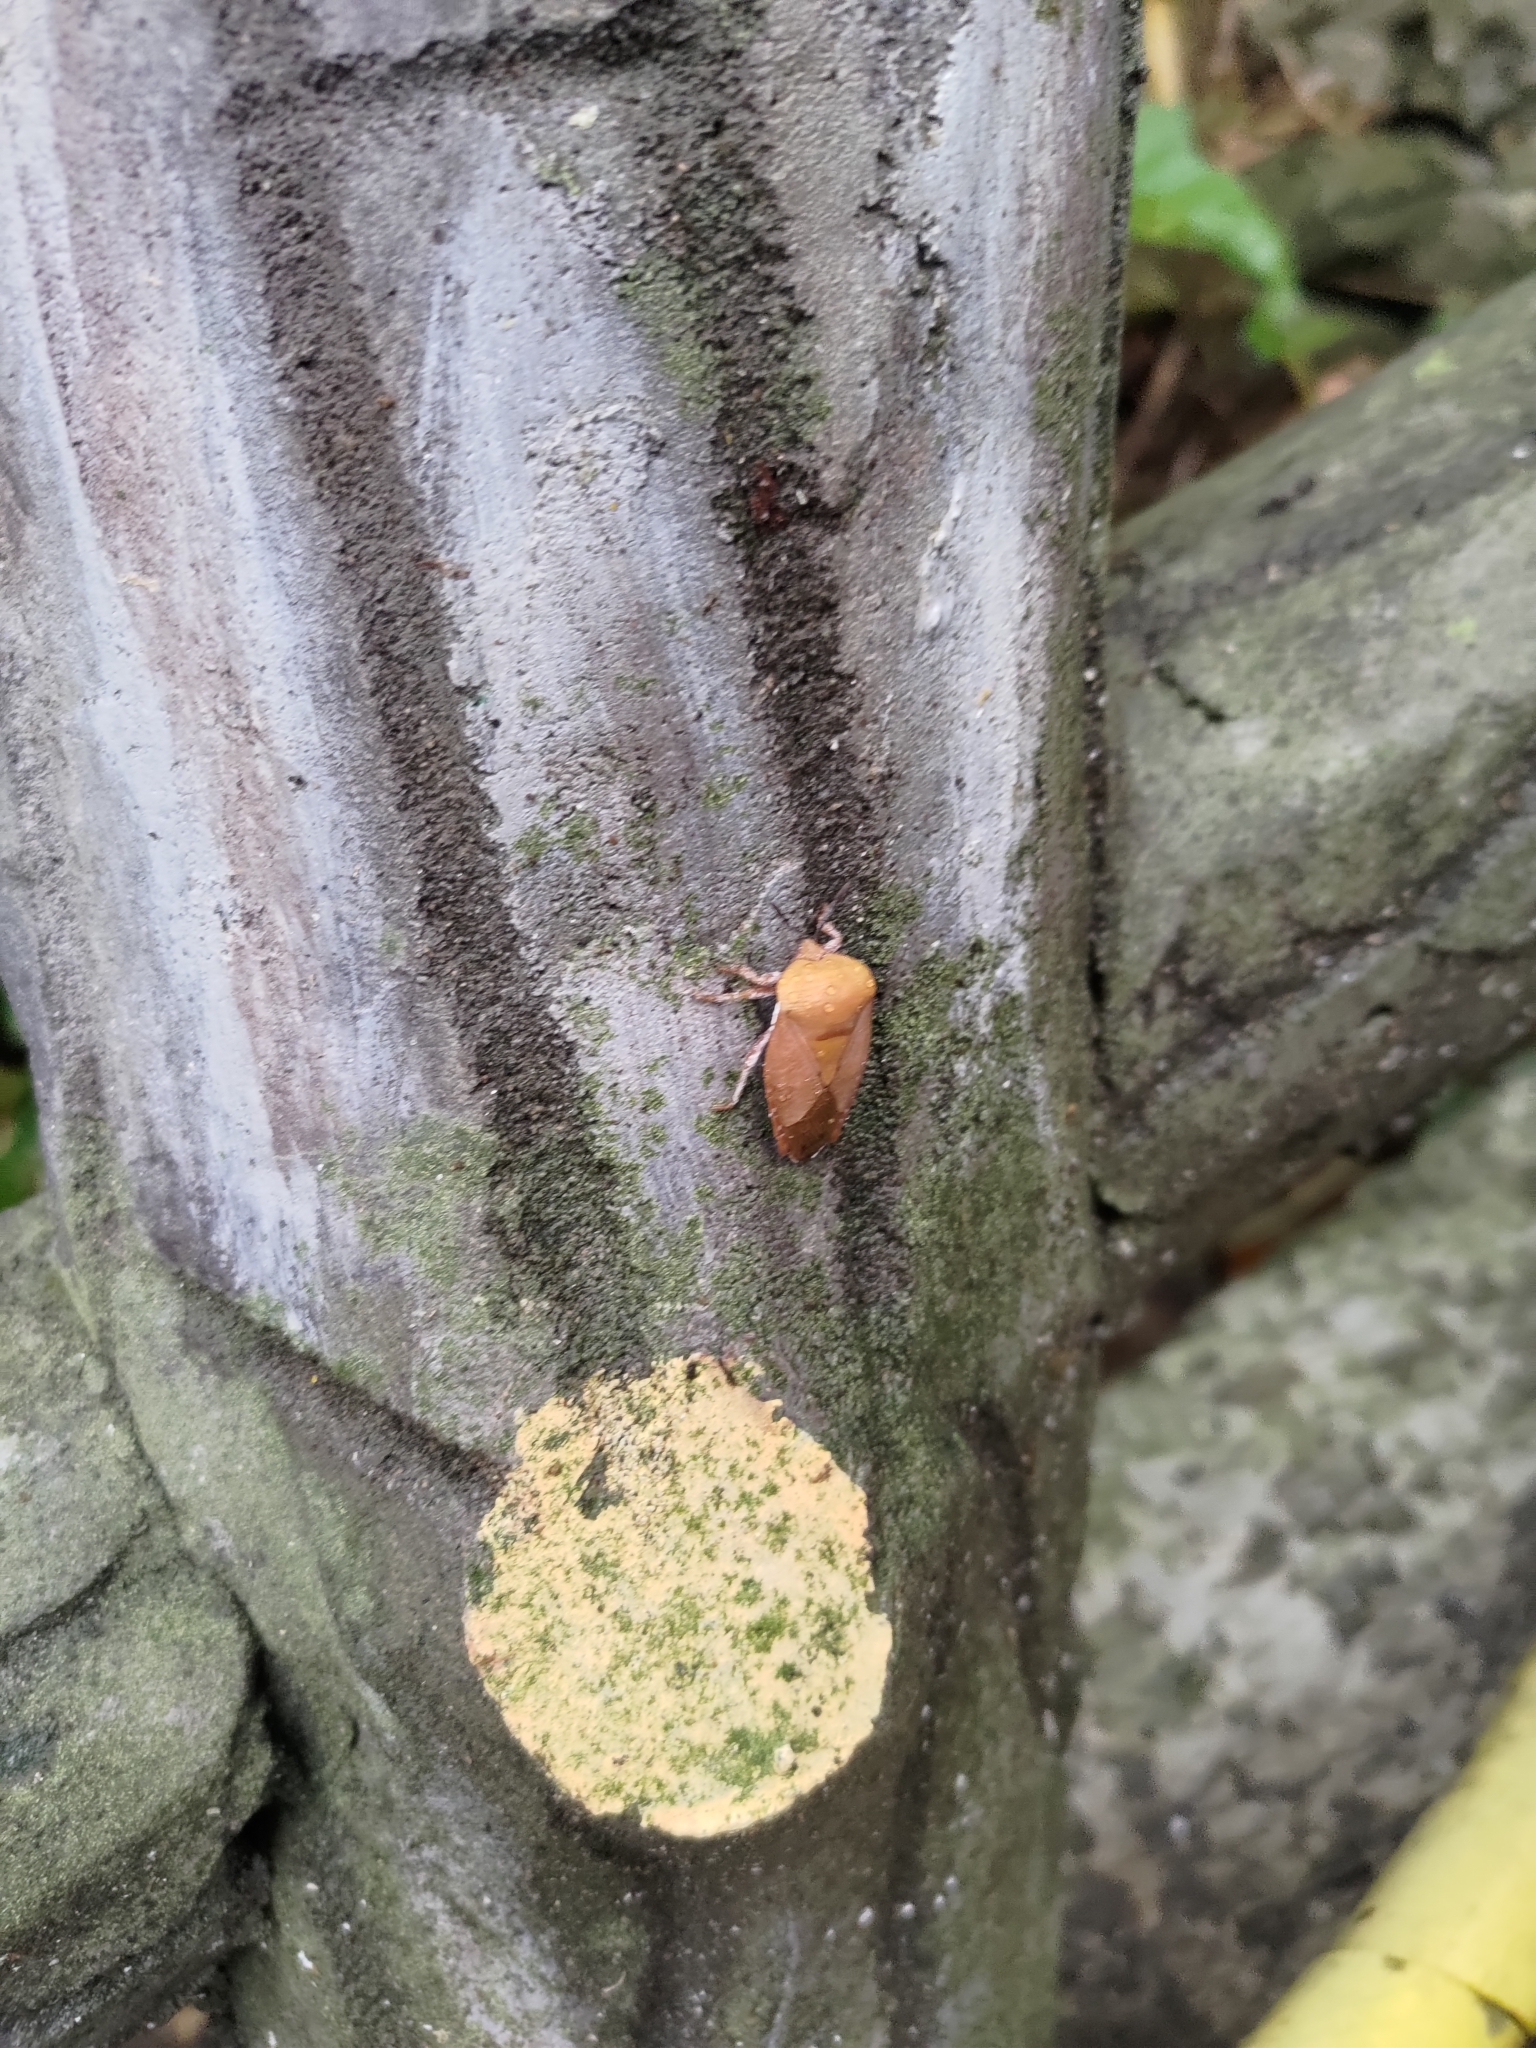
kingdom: Animalia
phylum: Arthropoda
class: Insecta
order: Hemiptera
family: Tessaratomidae
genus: Tessaratoma
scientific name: Tessaratoma papillosa
